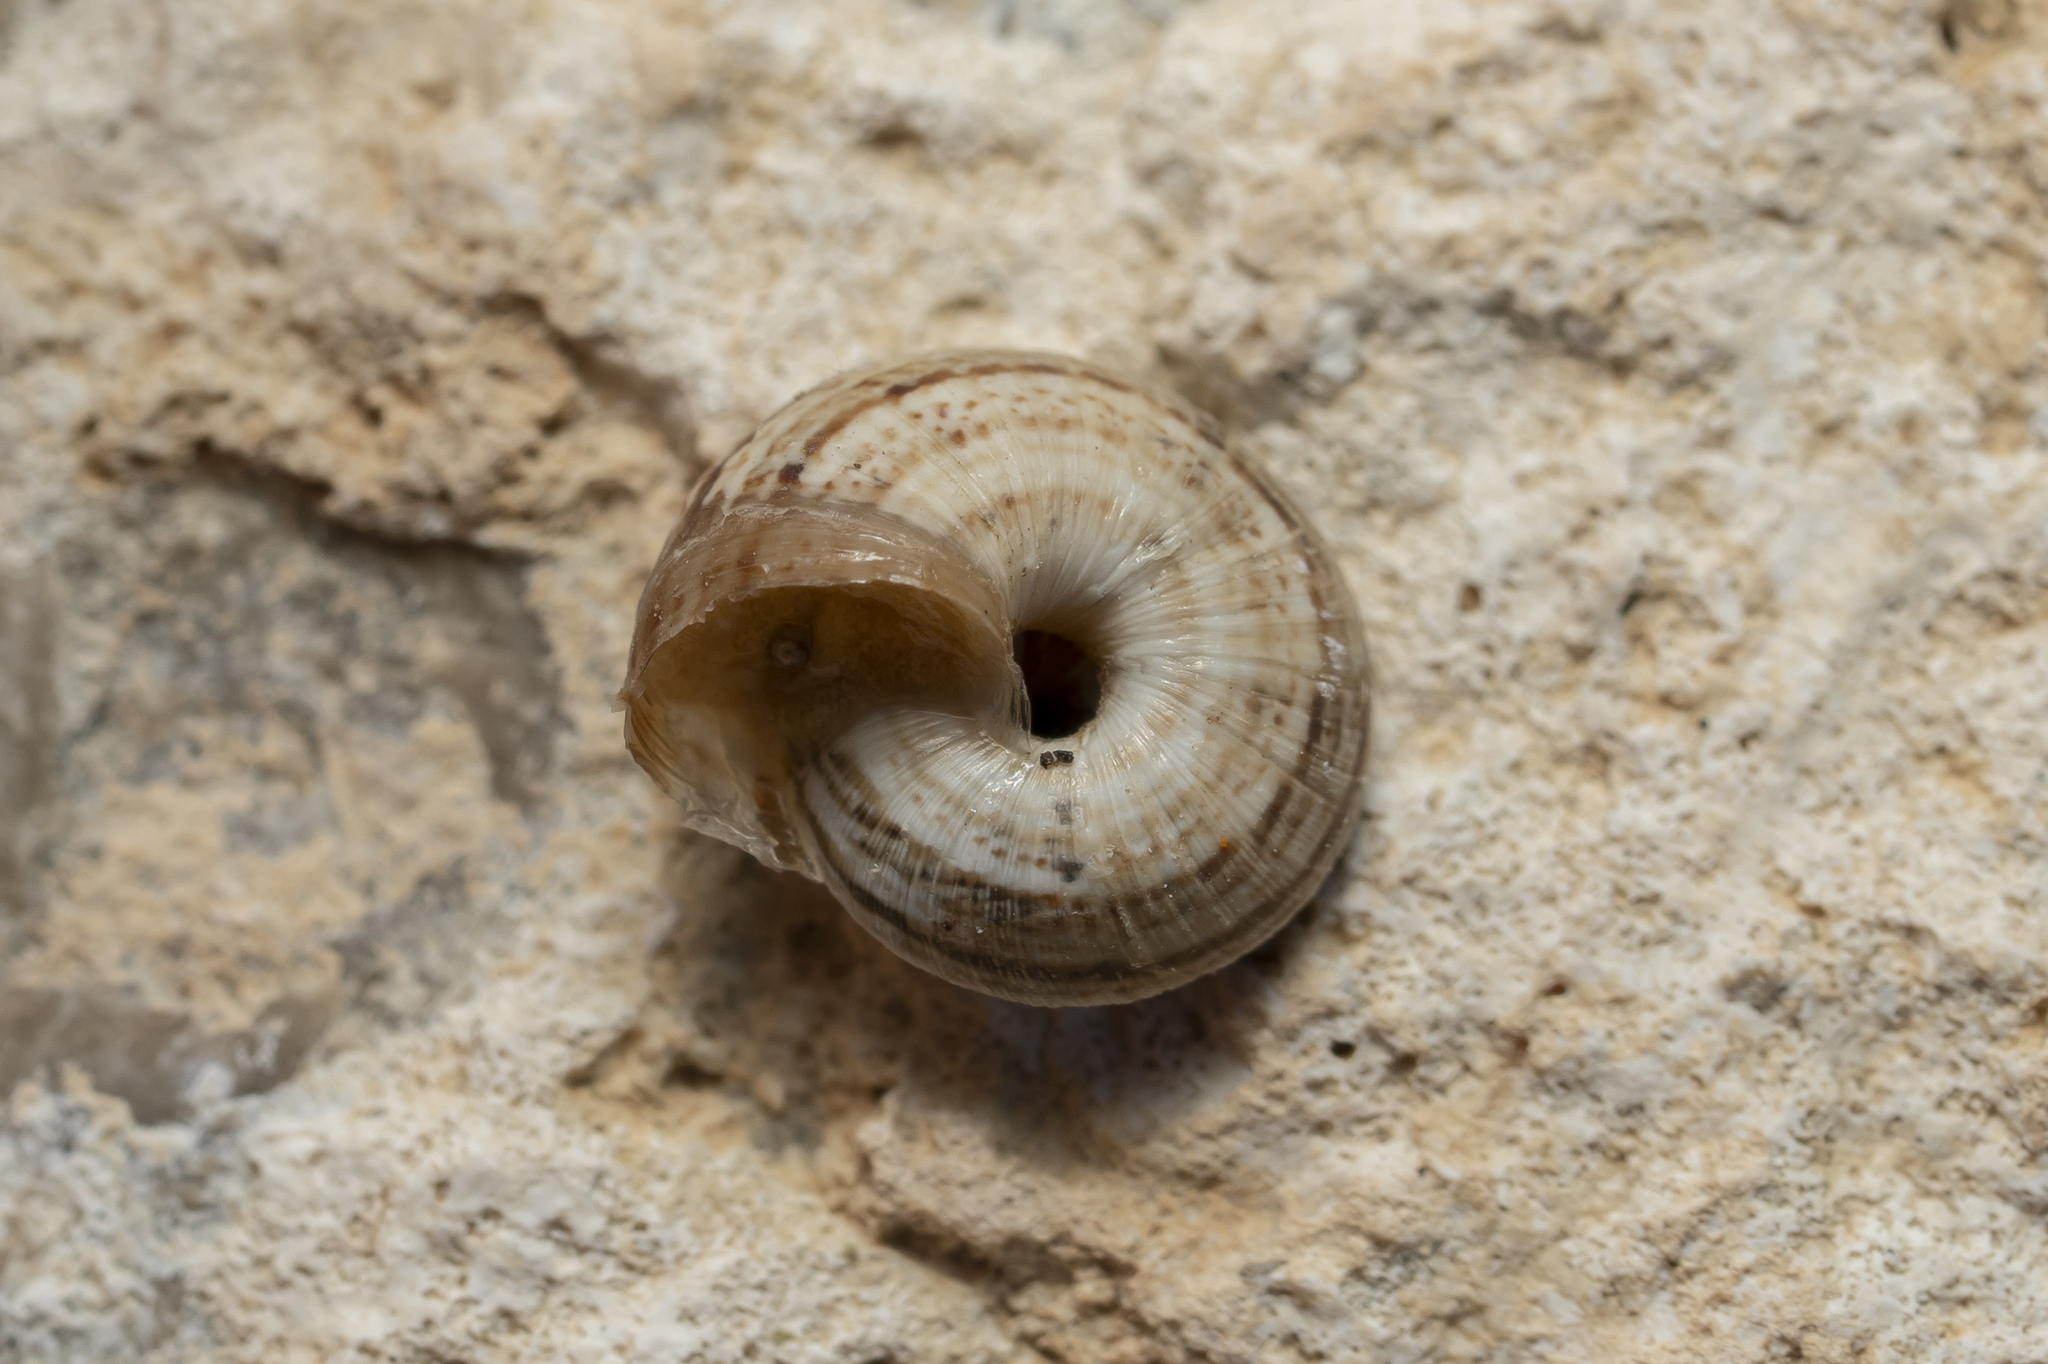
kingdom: Animalia
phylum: Mollusca
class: Gastropoda
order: Stylommatophora
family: Geomitridae
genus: Xerocrassa
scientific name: Xerocrassa cretica
